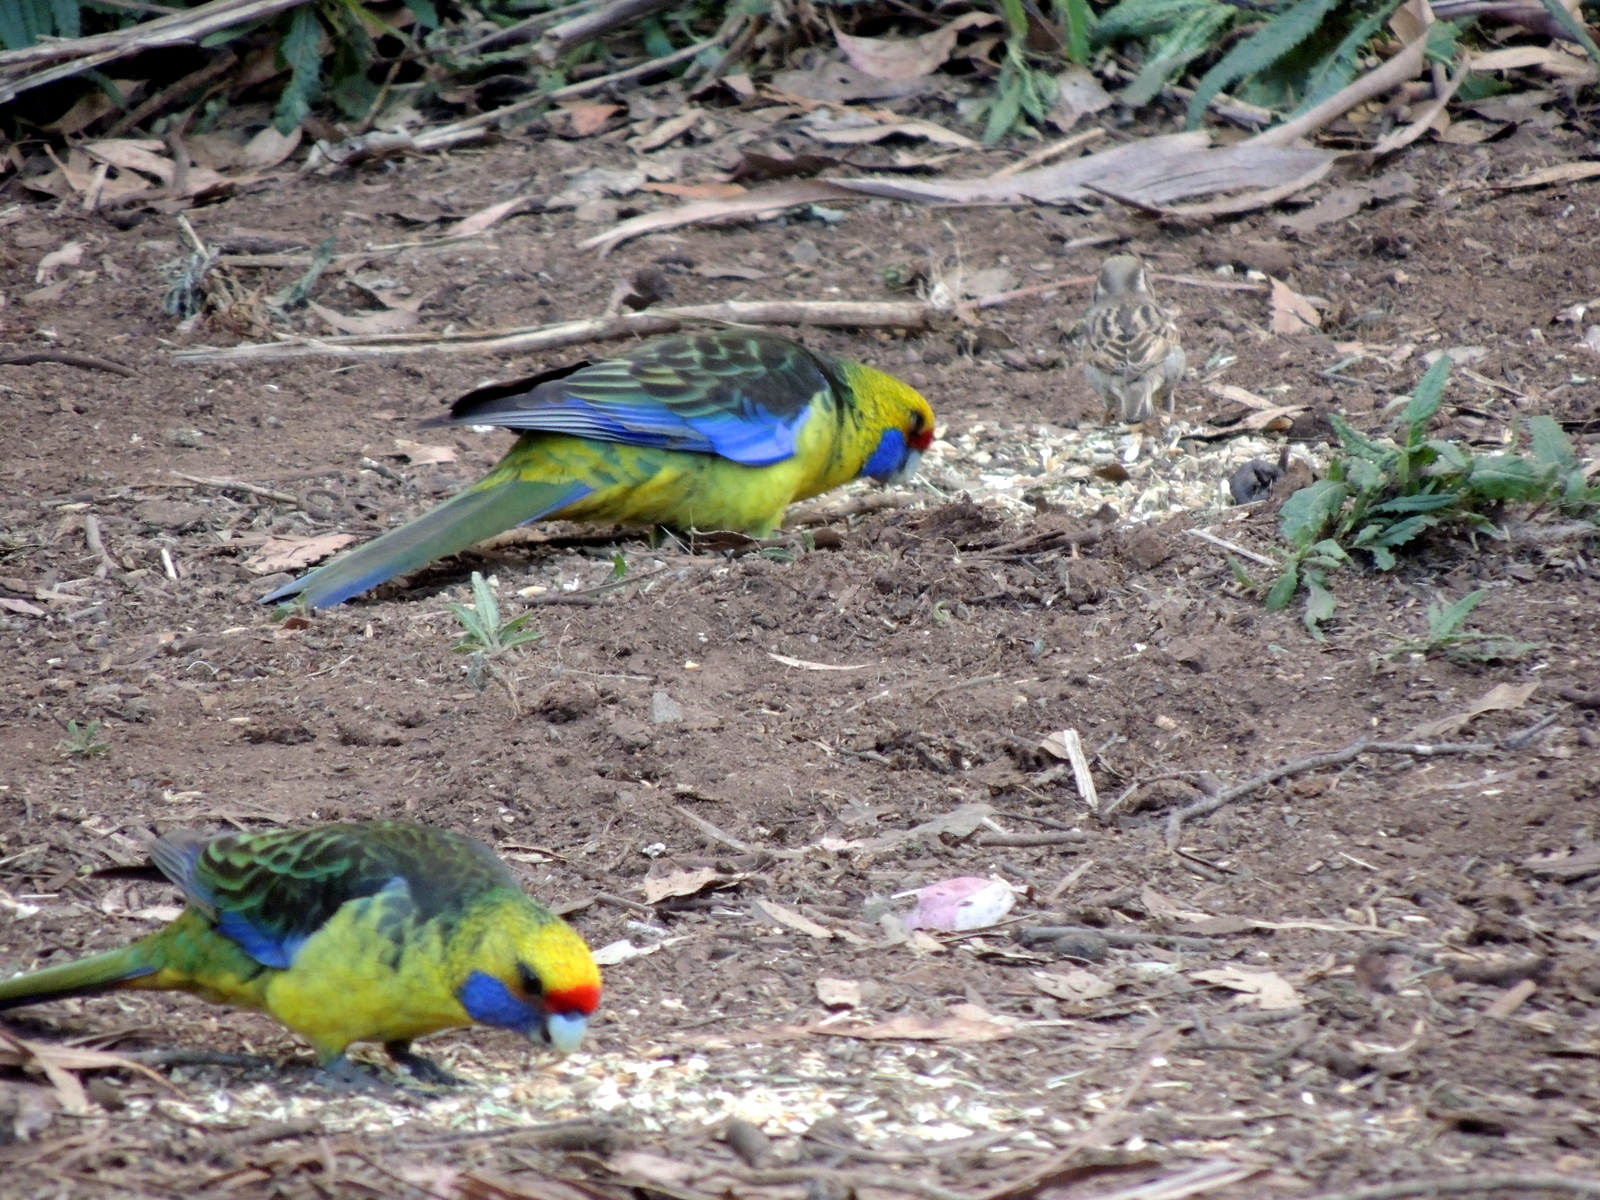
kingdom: Animalia
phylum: Chordata
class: Aves
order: Psittaciformes
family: Psittacidae
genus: Platycercus
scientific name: Platycercus caledonicus
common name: Green rosella
